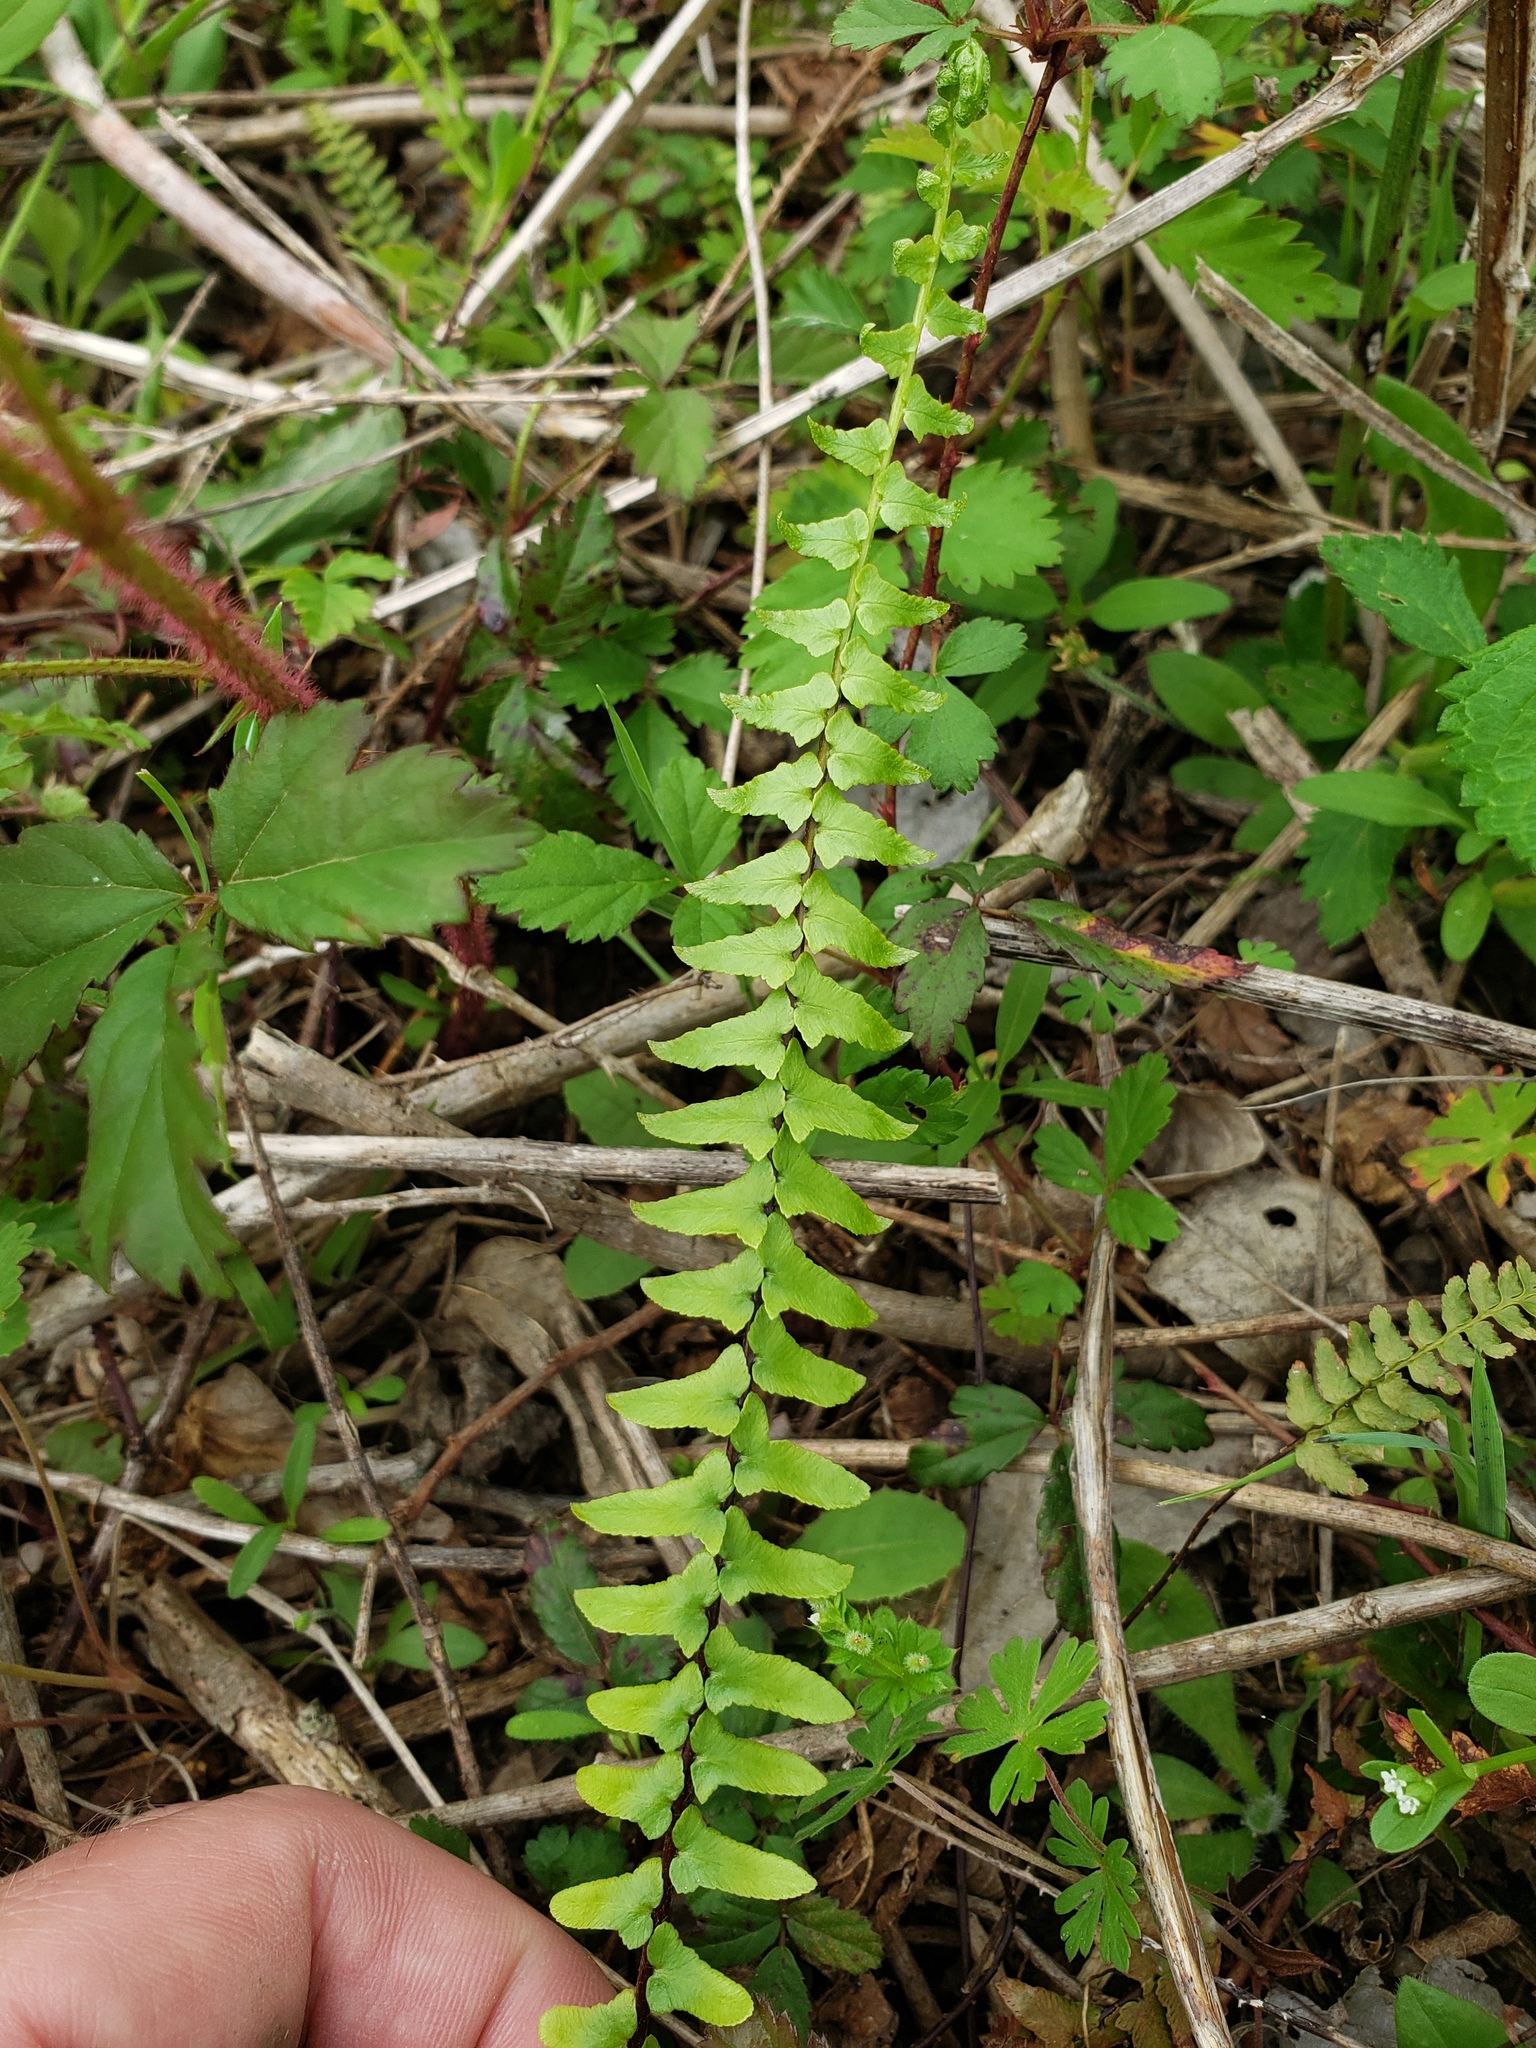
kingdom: Plantae
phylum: Tracheophyta
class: Polypodiopsida
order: Polypodiales
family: Aspleniaceae
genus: Asplenium
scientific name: Asplenium platyneuron
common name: Ebony spleenwort
